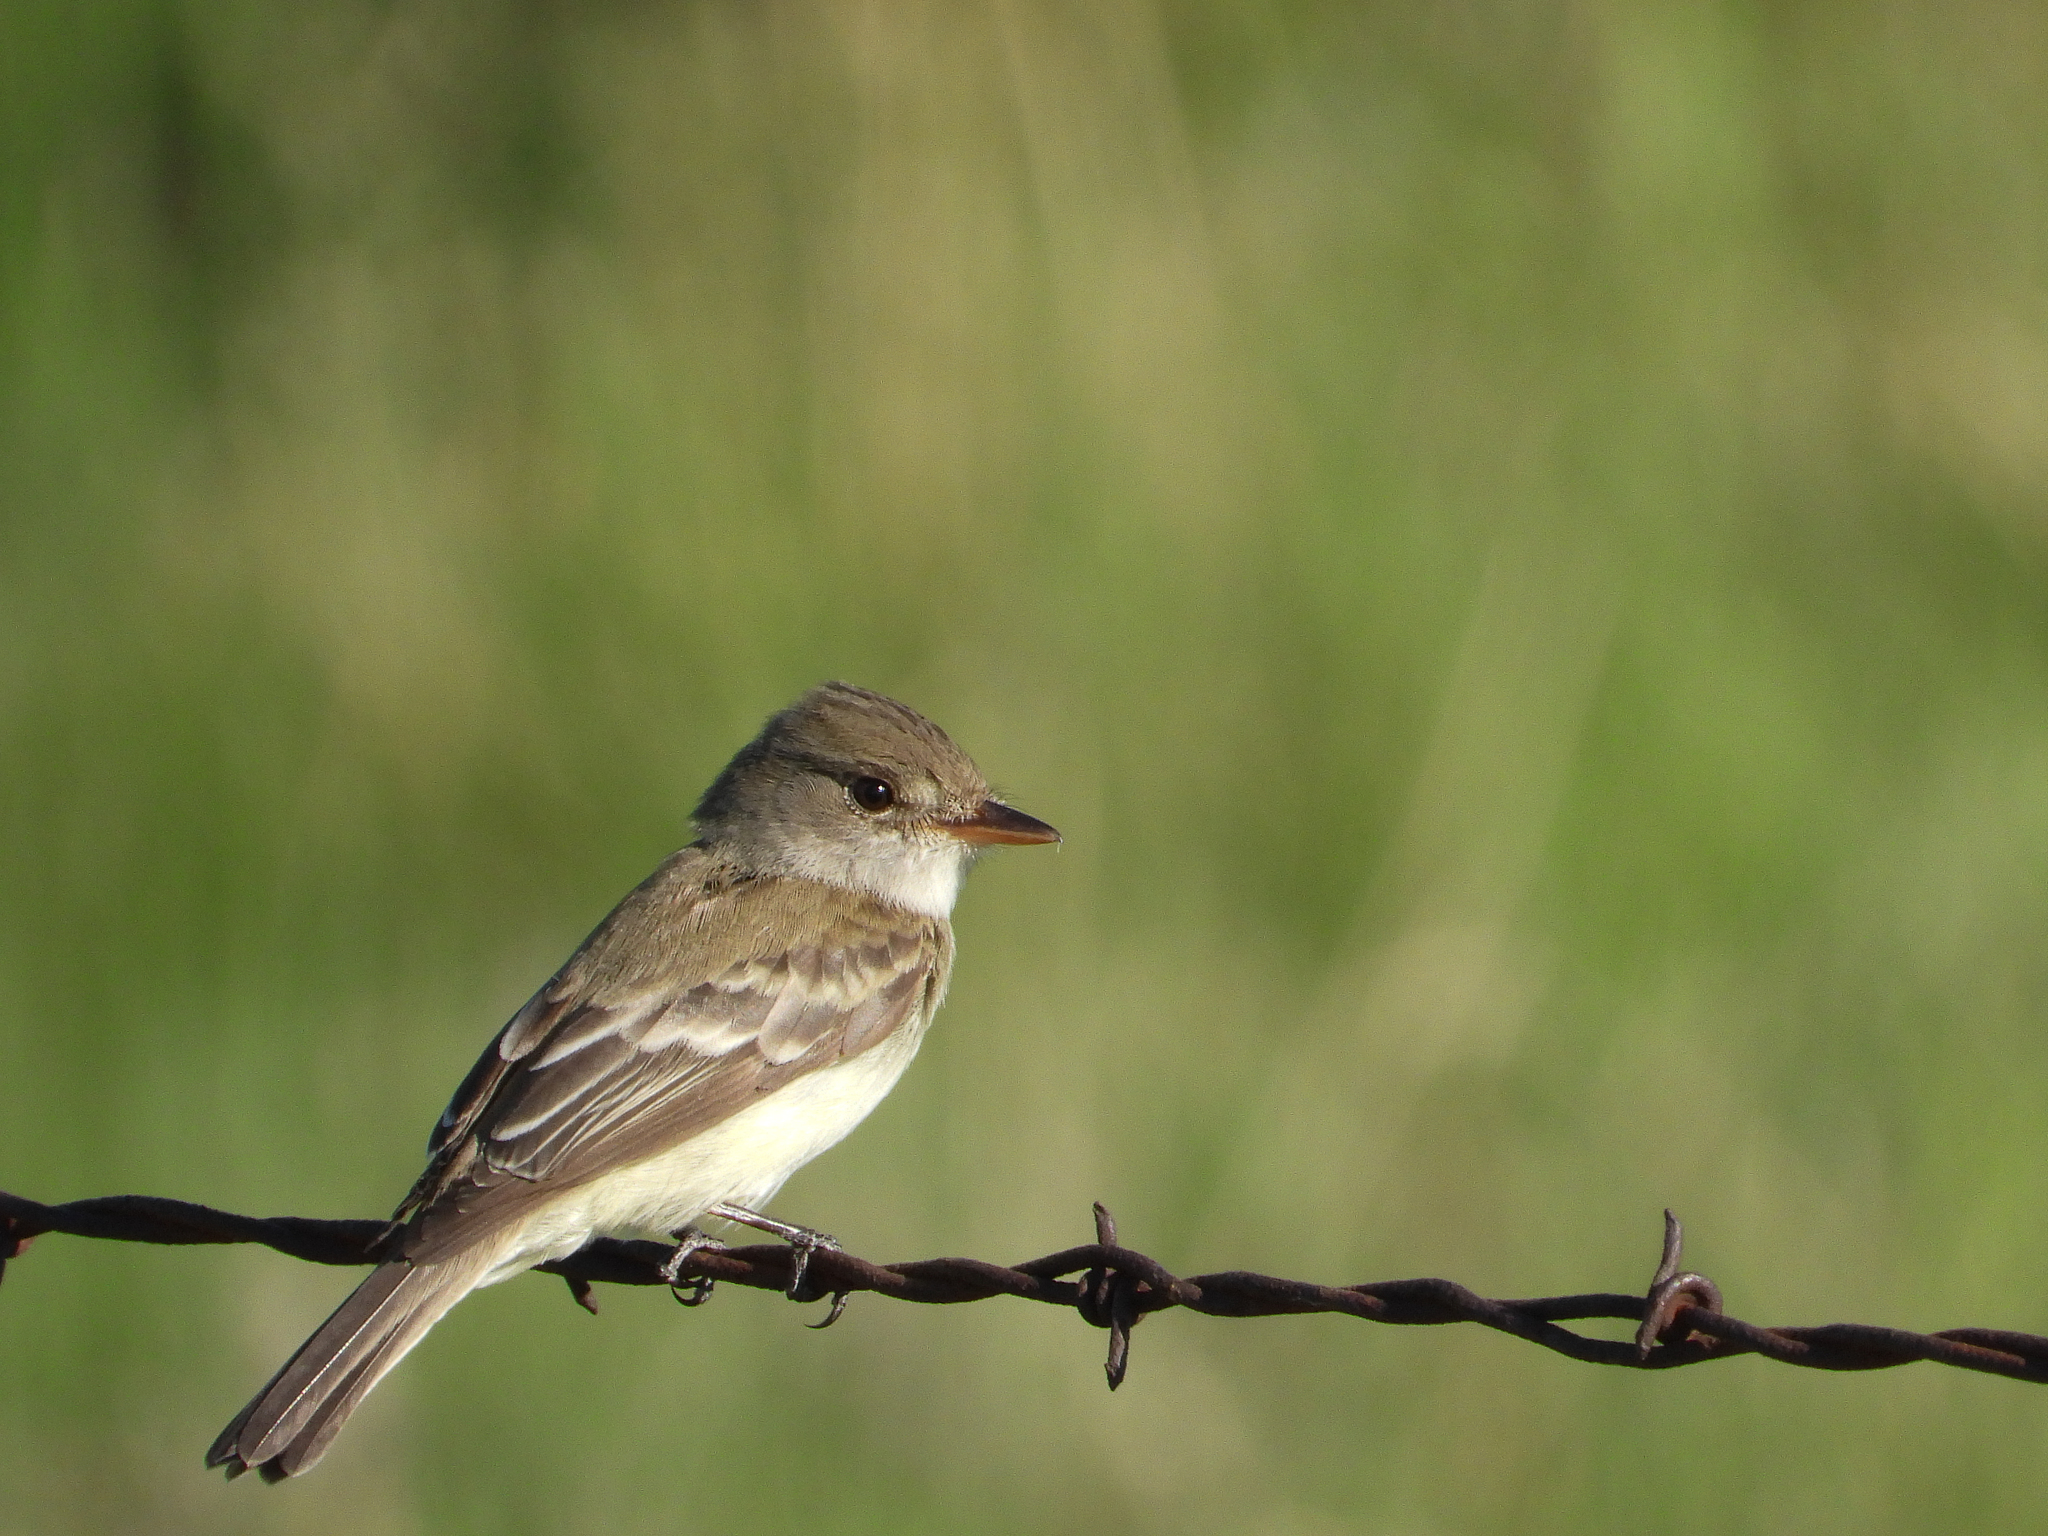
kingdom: Animalia
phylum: Chordata
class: Aves
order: Passeriformes
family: Tyrannidae
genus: Empidonax
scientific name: Empidonax traillii
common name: Willow flycatcher
